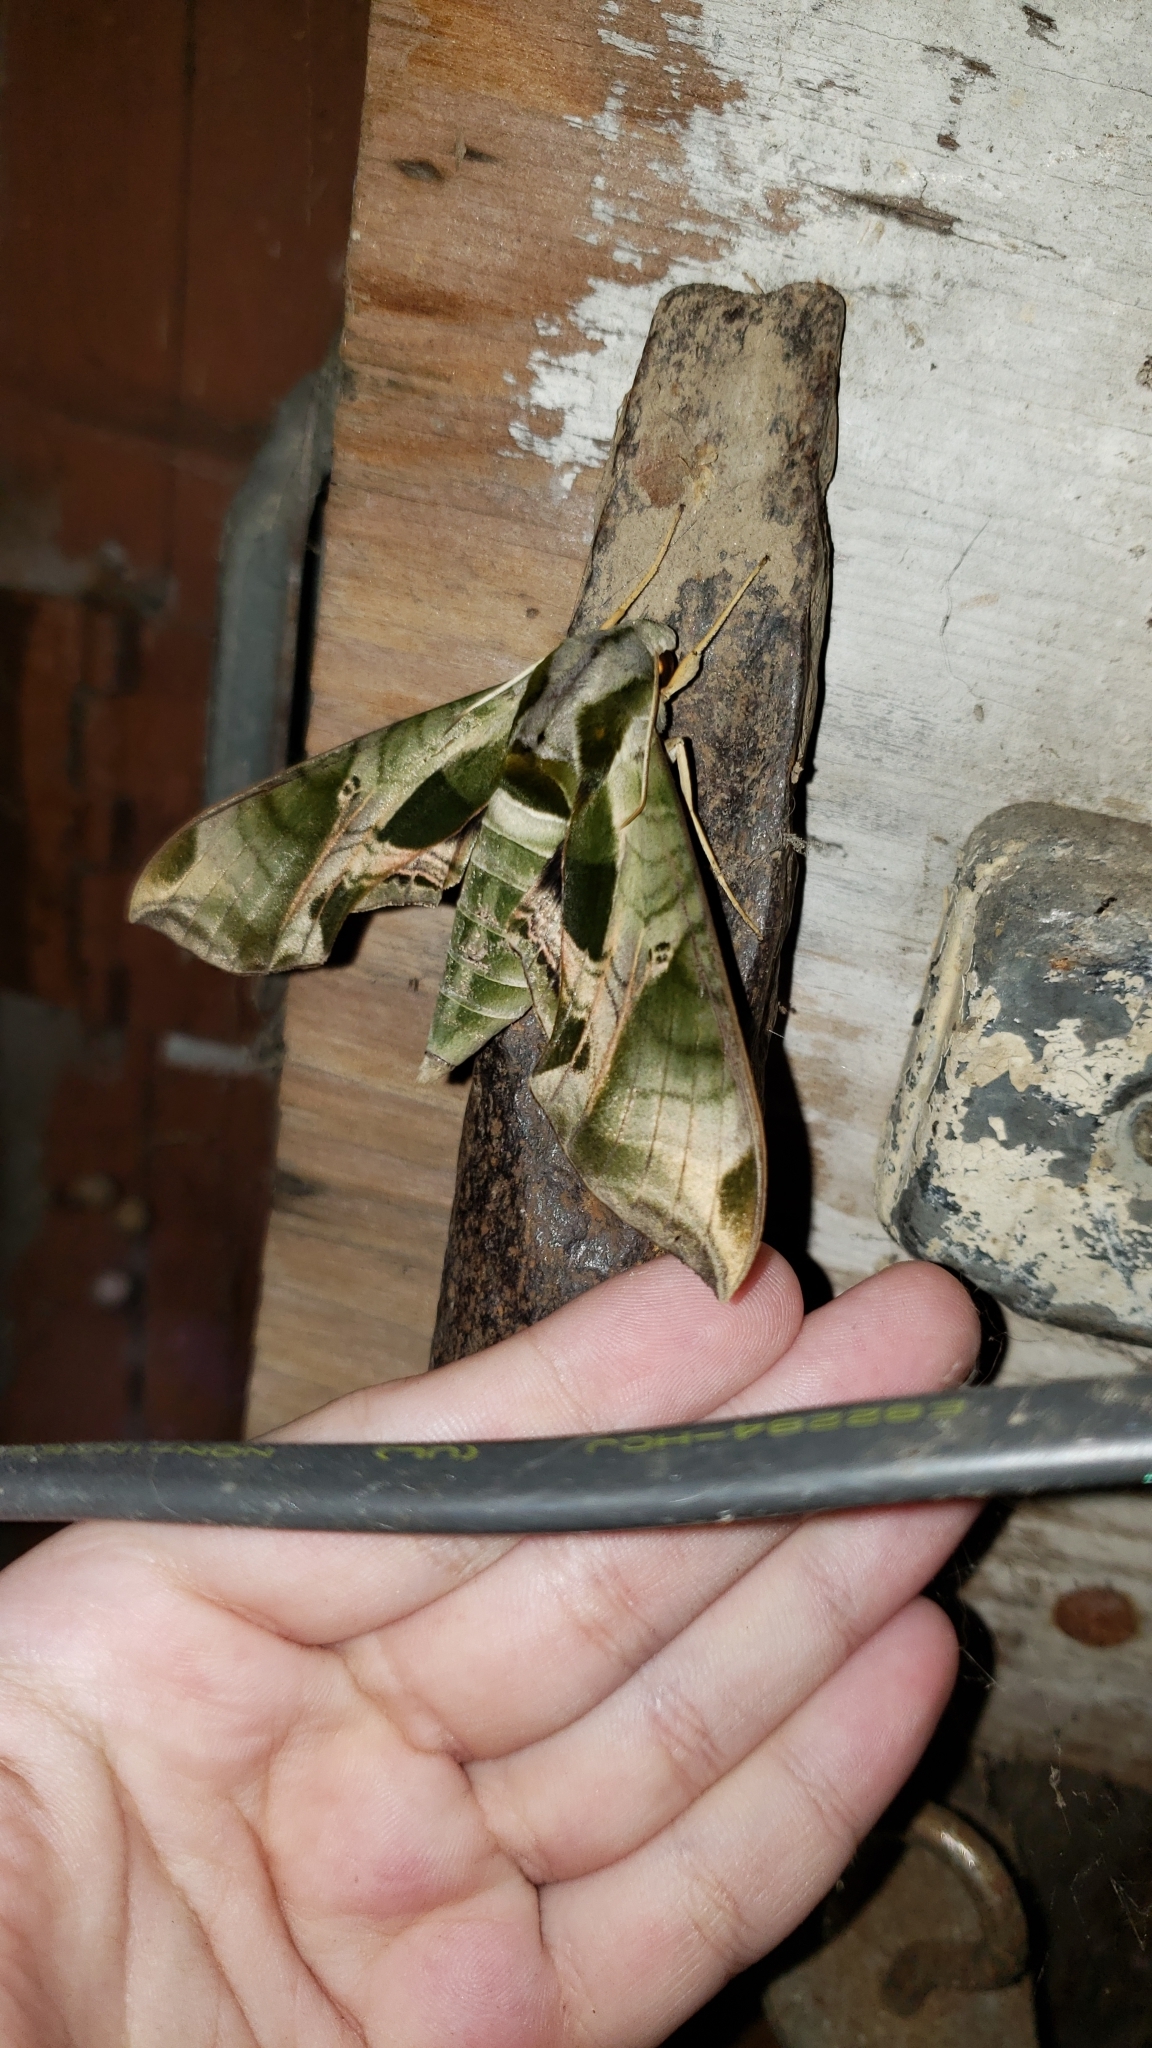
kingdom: Animalia
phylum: Arthropoda
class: Insecta
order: Lepidoptera
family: Sphingidae
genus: Eumorpha
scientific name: Eumorpha pandorus
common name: Pandora sphinx
